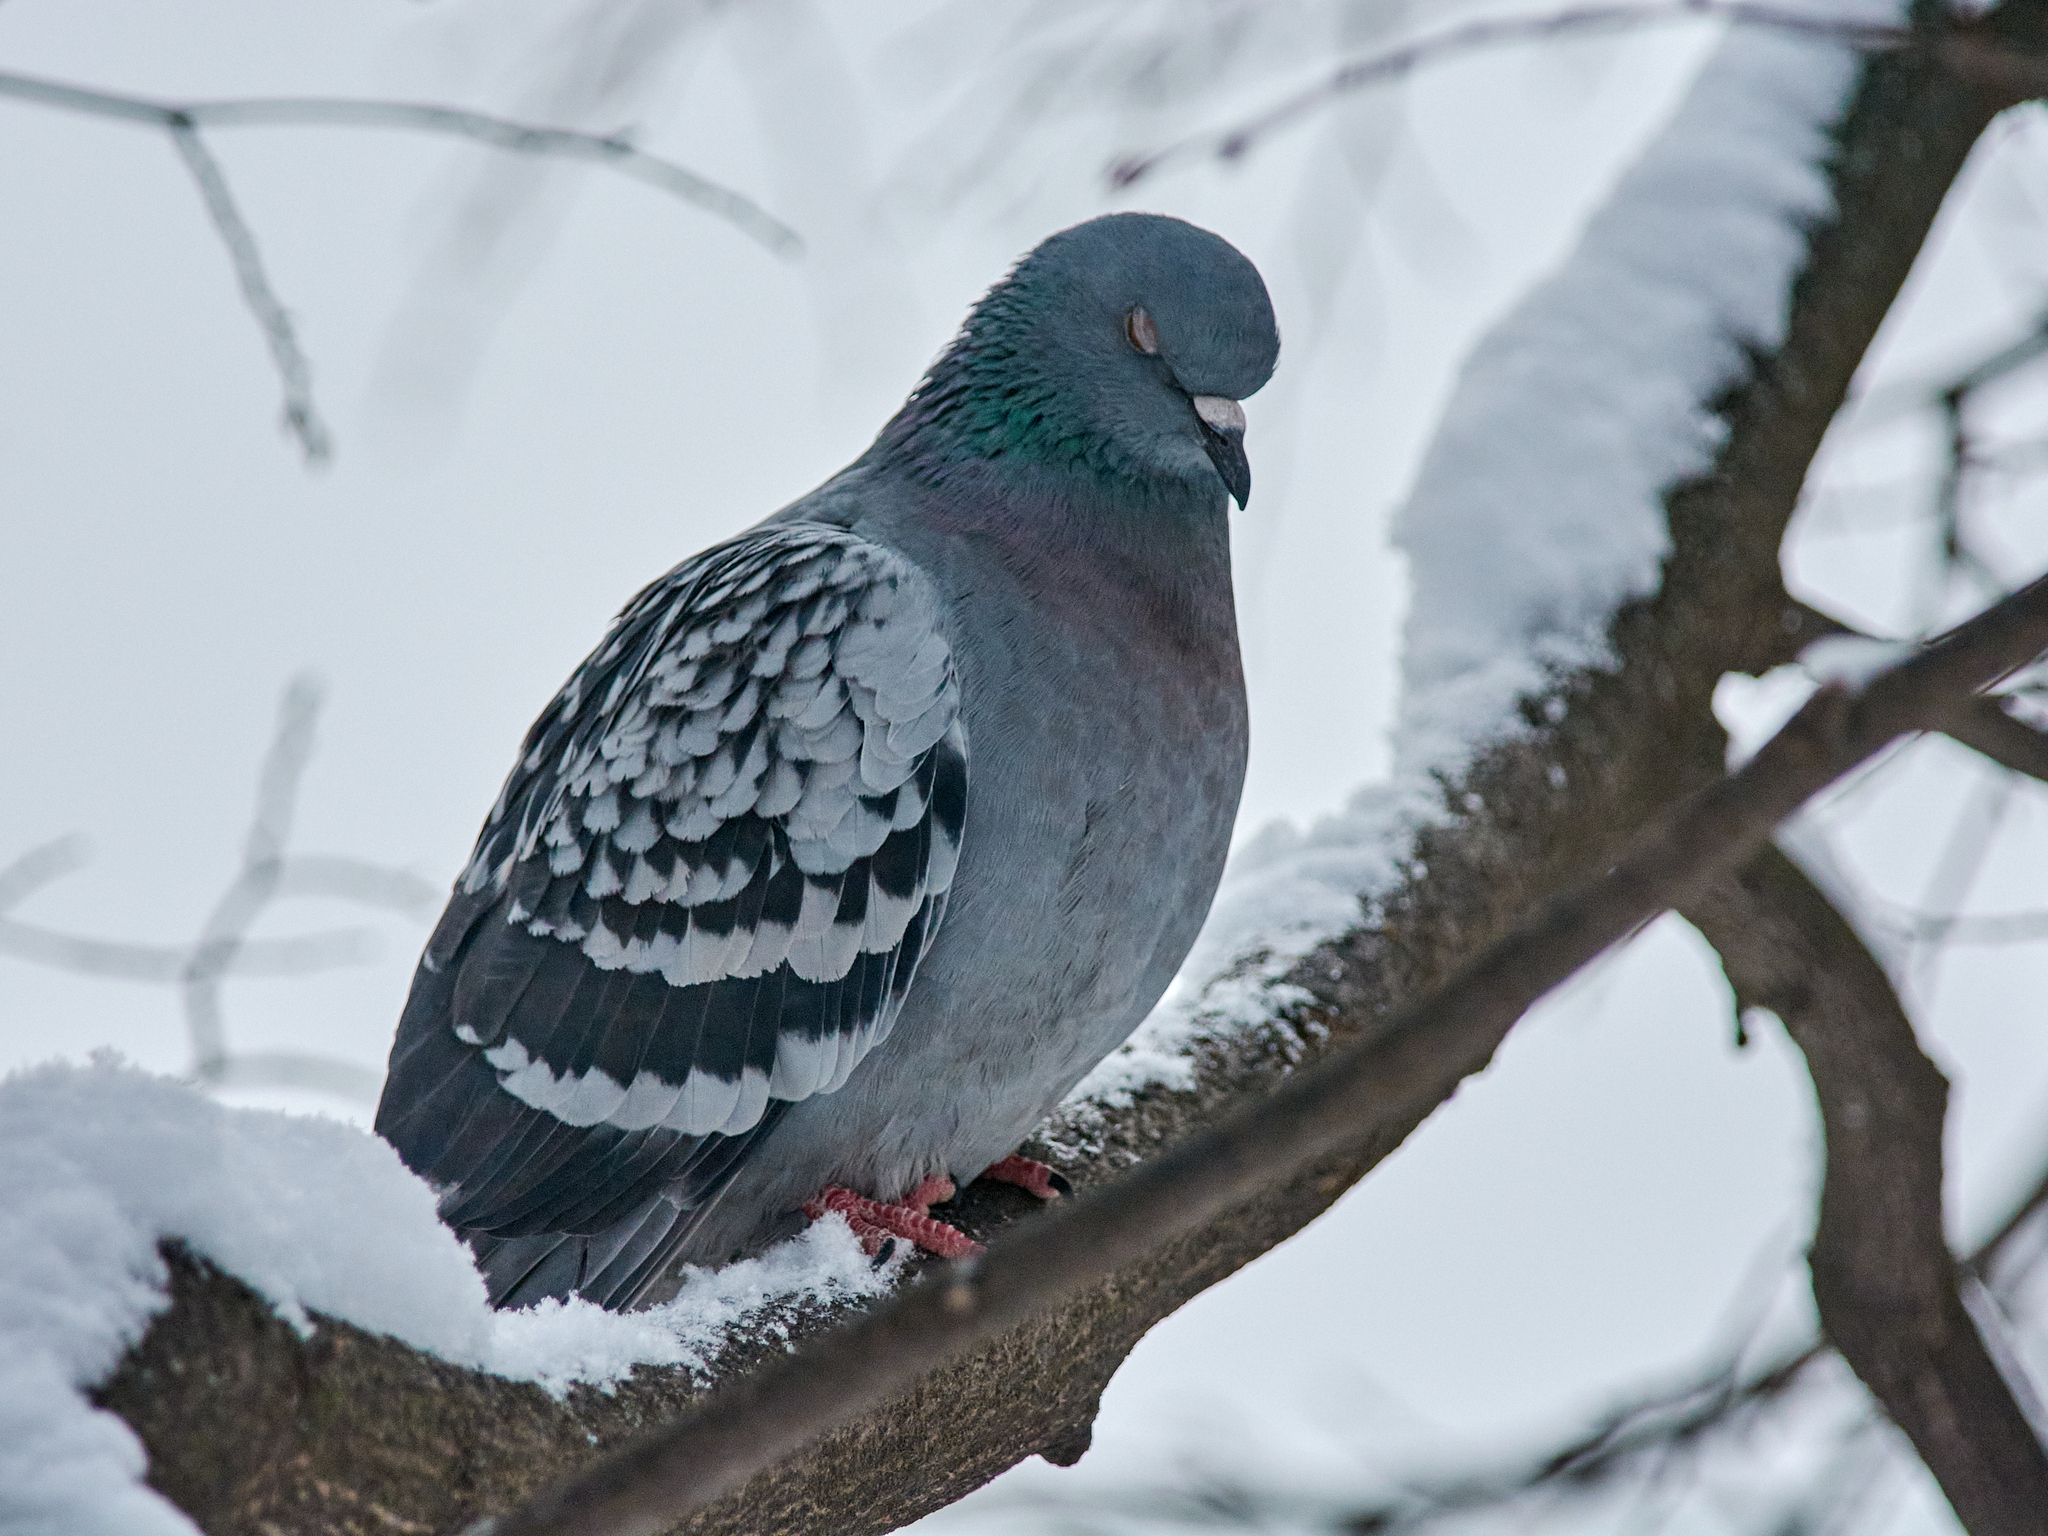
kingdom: Animalia
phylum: Chordata
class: Aves
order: Columbiformes
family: Columbidae
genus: Columba
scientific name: Columba livia
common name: Rock pigeon
